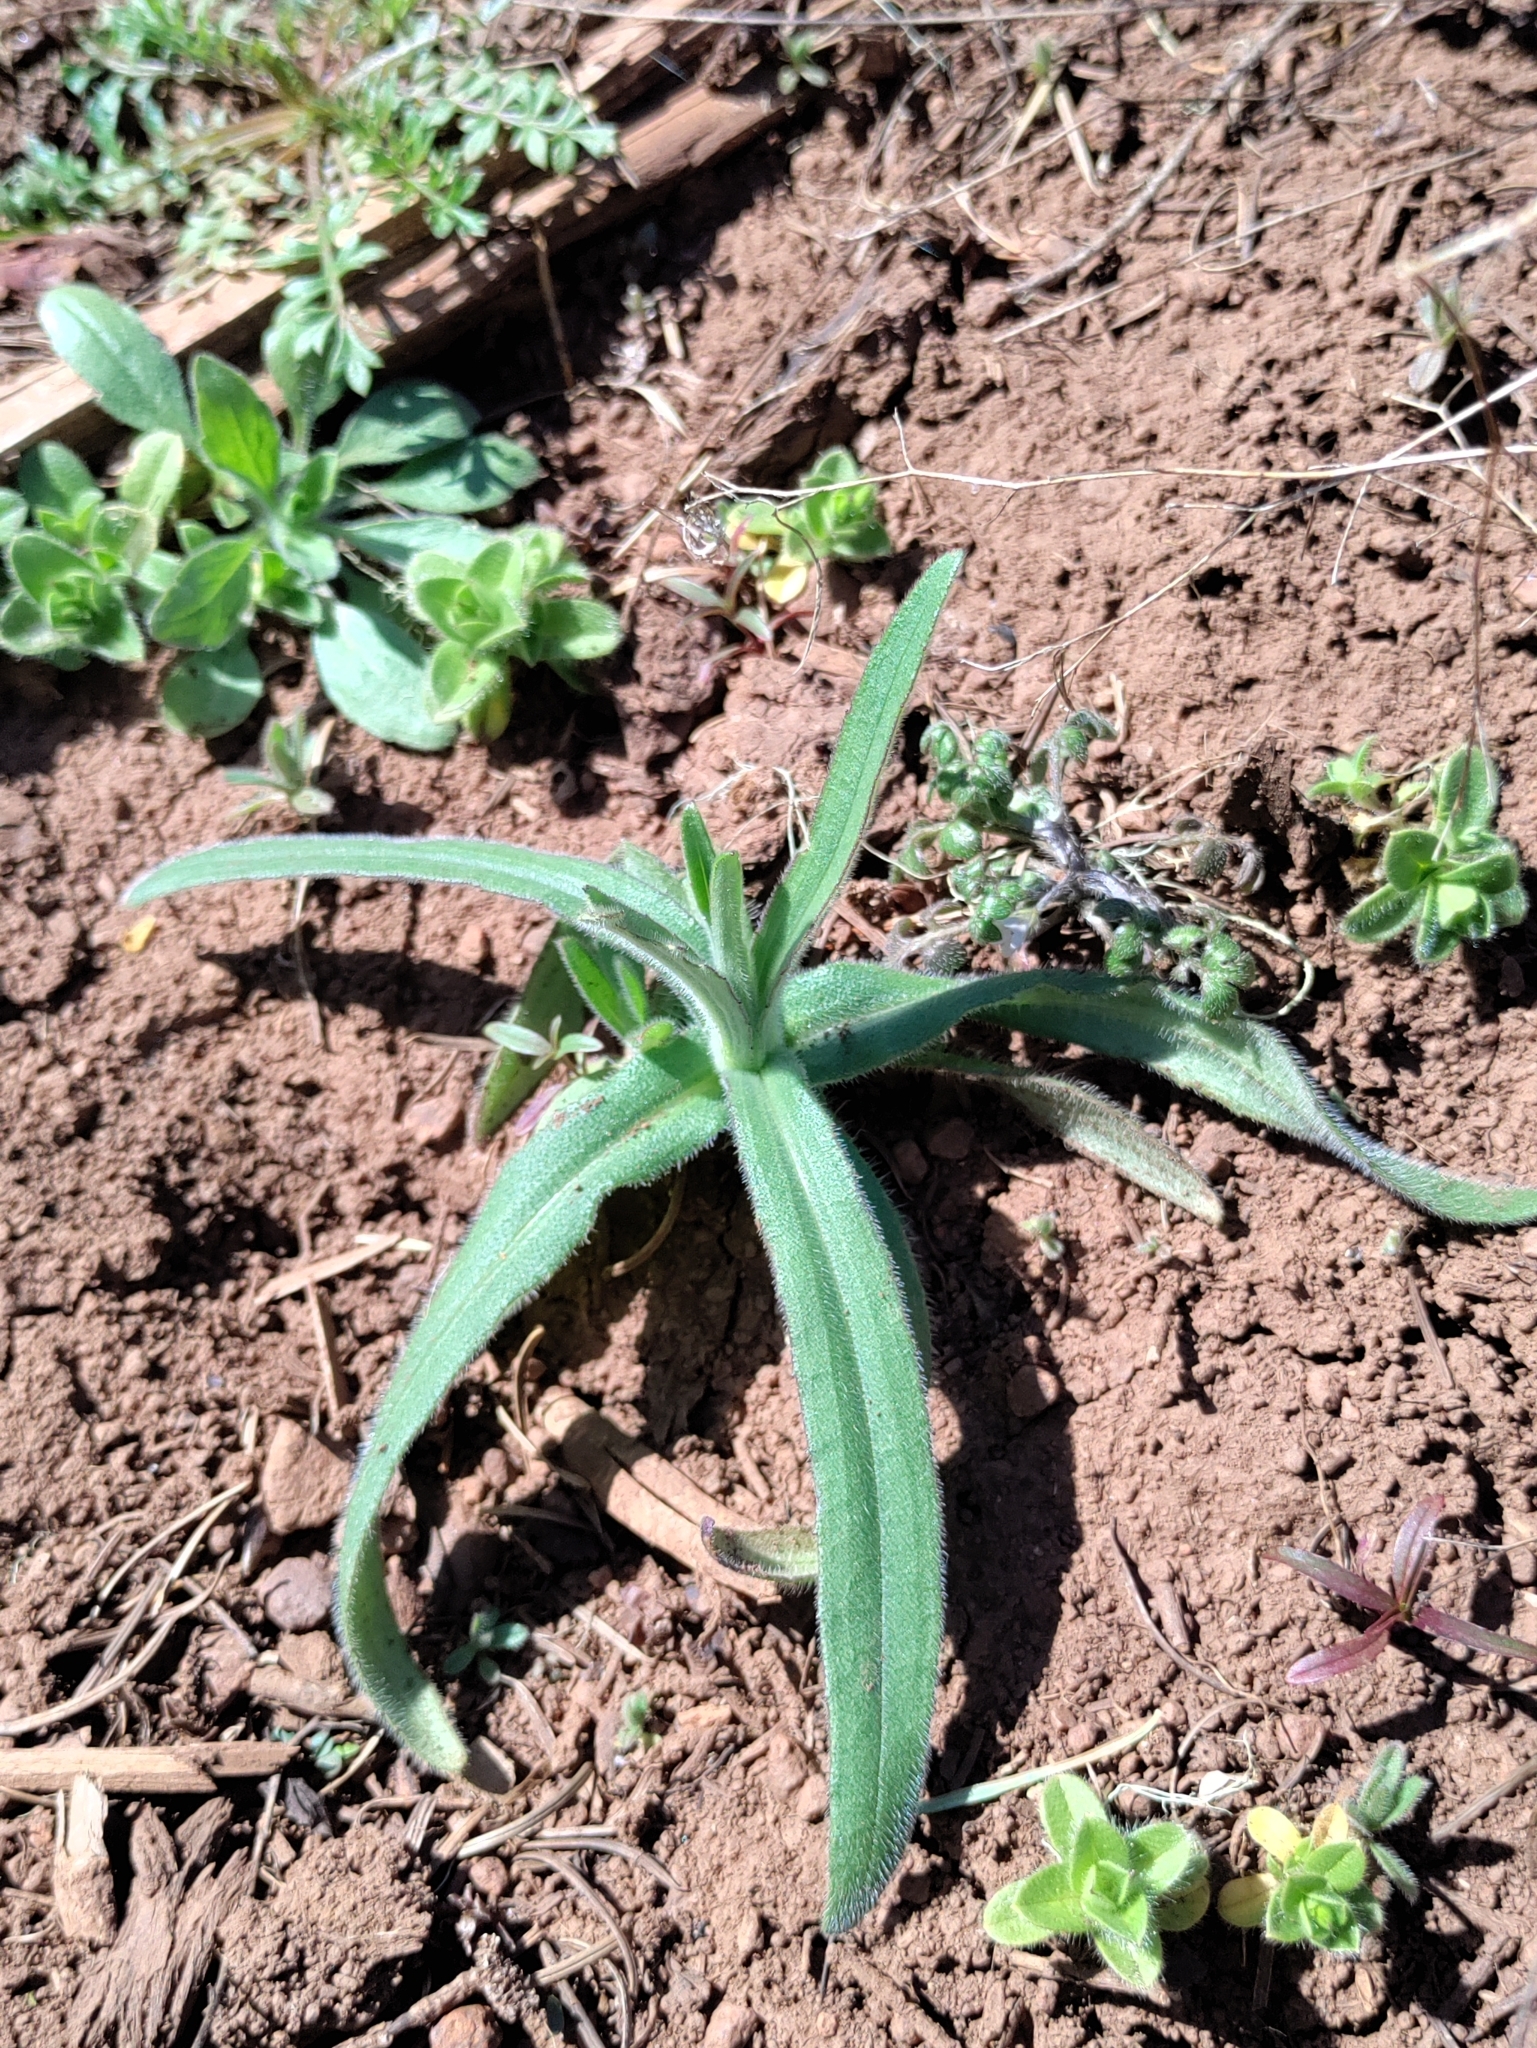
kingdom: Plantae
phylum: Tracheophyta
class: Magnoliopsida
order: Asterales
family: Asteraceae
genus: Madia
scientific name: Madia elegans
